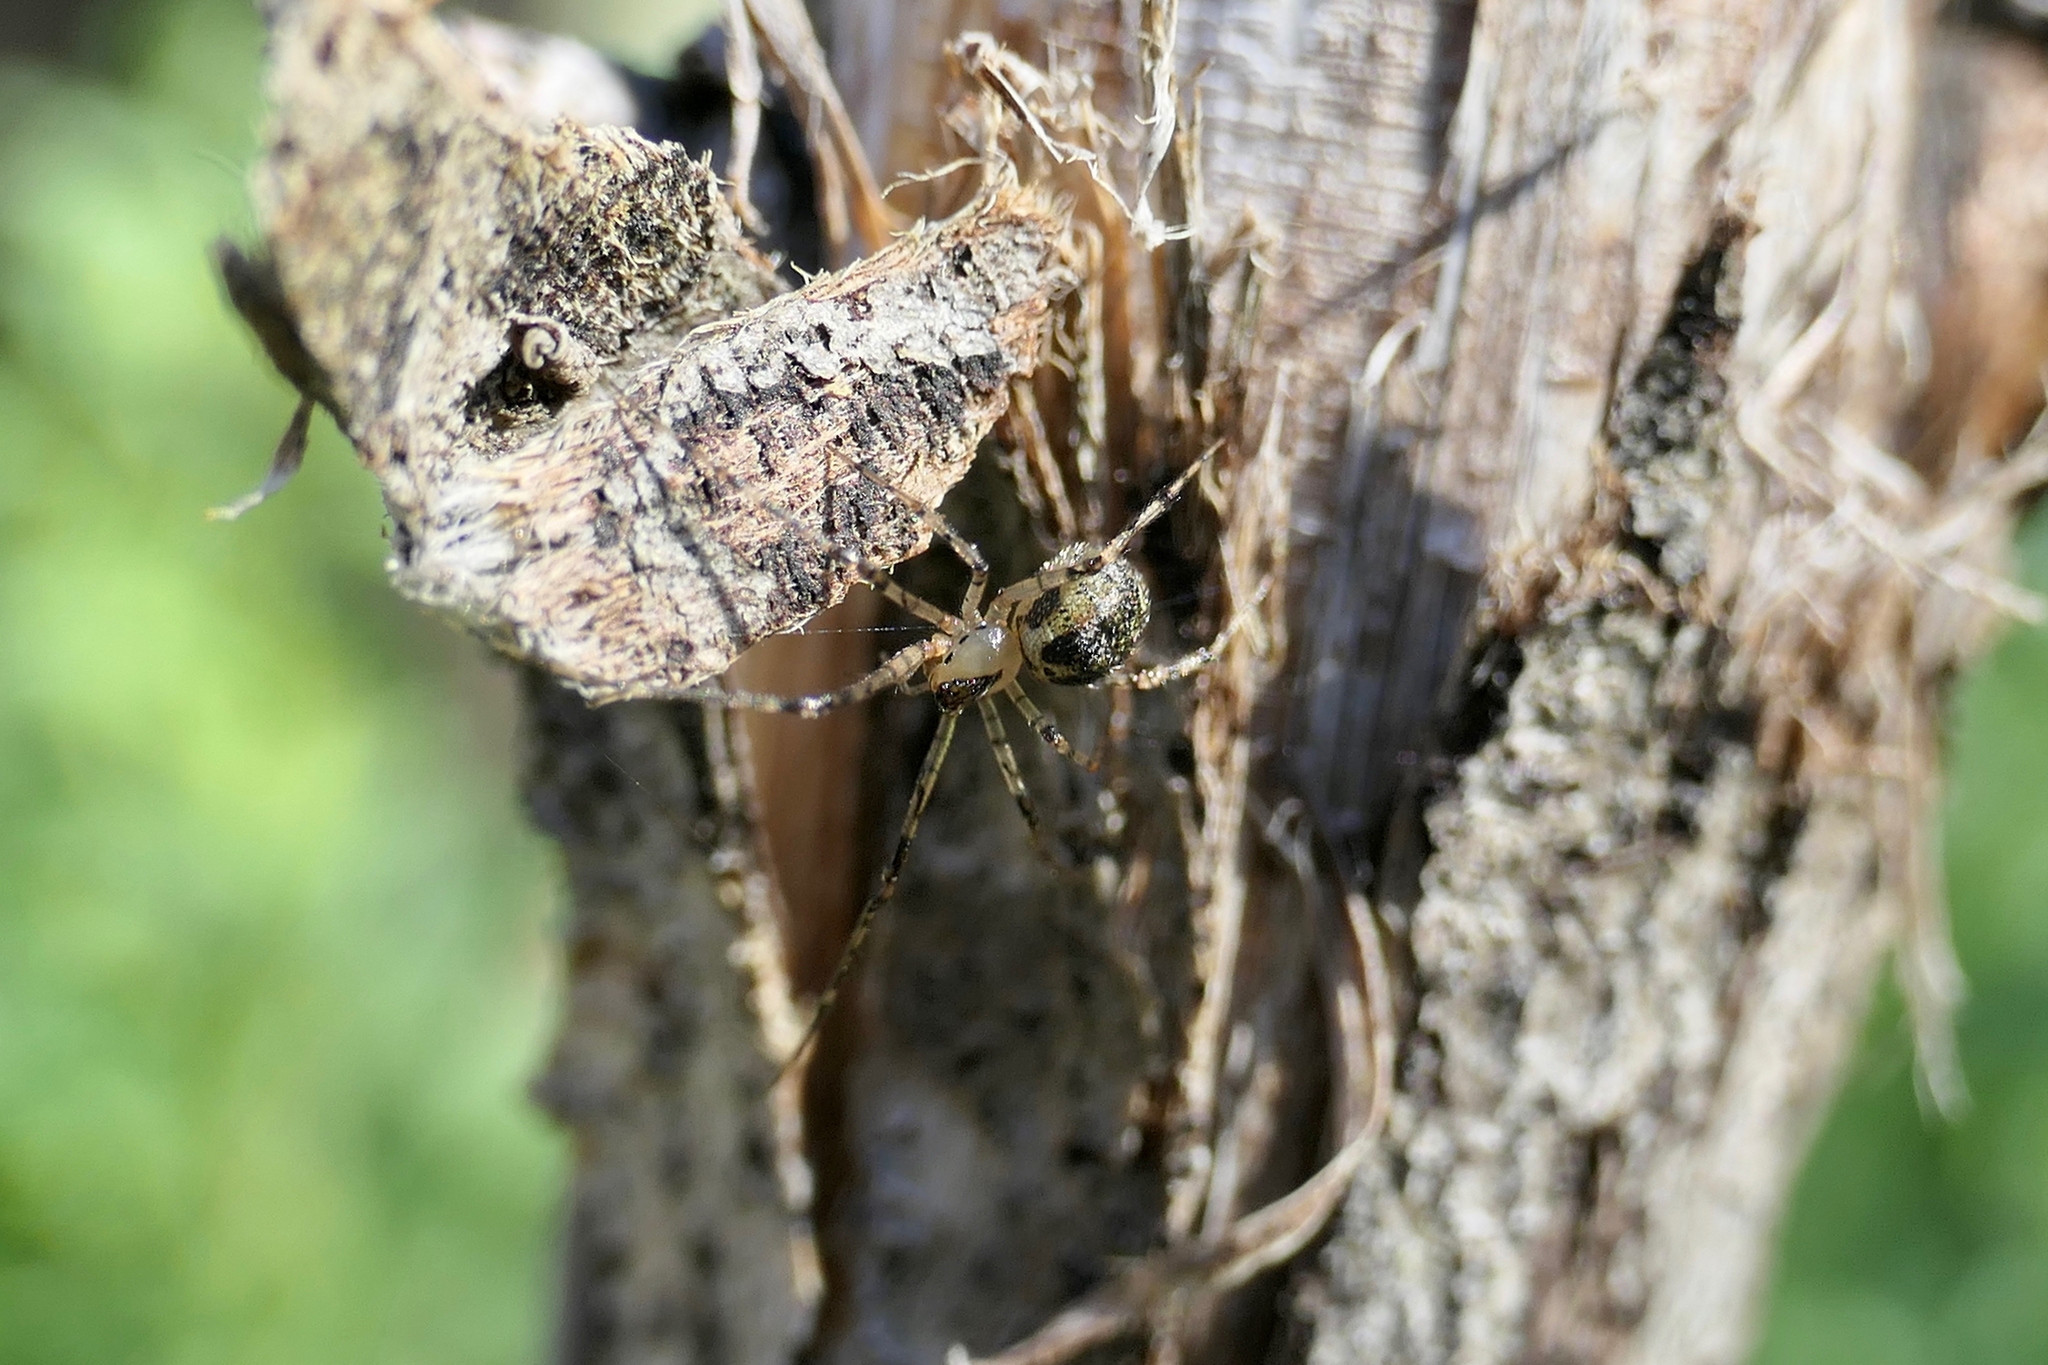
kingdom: Animalia
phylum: Arthropoda
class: Arachnida
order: Araneae
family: Theridiidae
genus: Platnickina
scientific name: Platnickina tincta
